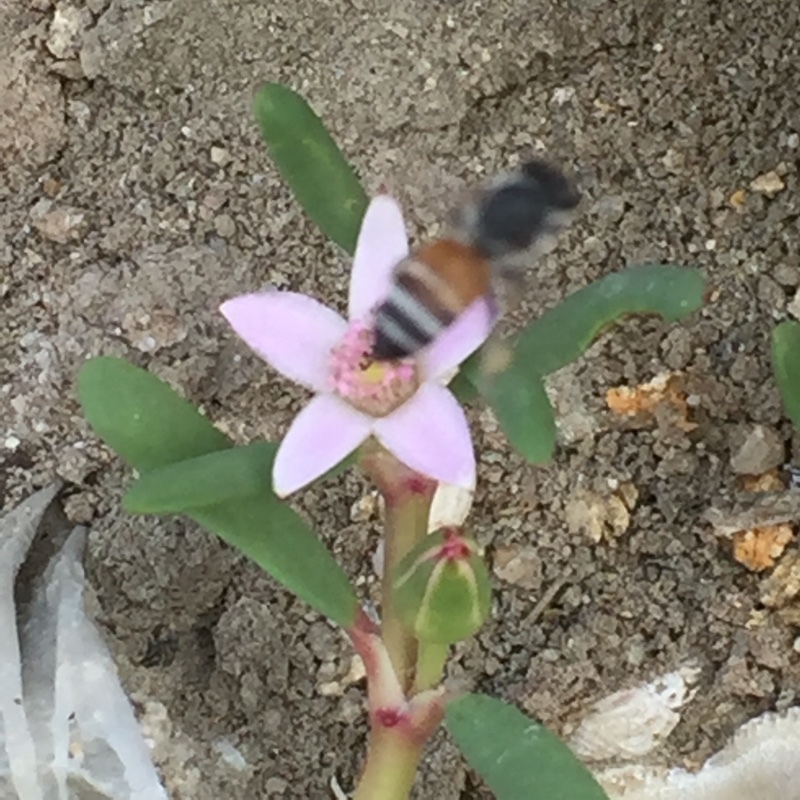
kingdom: Animalia
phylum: Arthropoda
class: Insecta
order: Hymenoptera
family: Apidae
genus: Apis
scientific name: Apis florea
